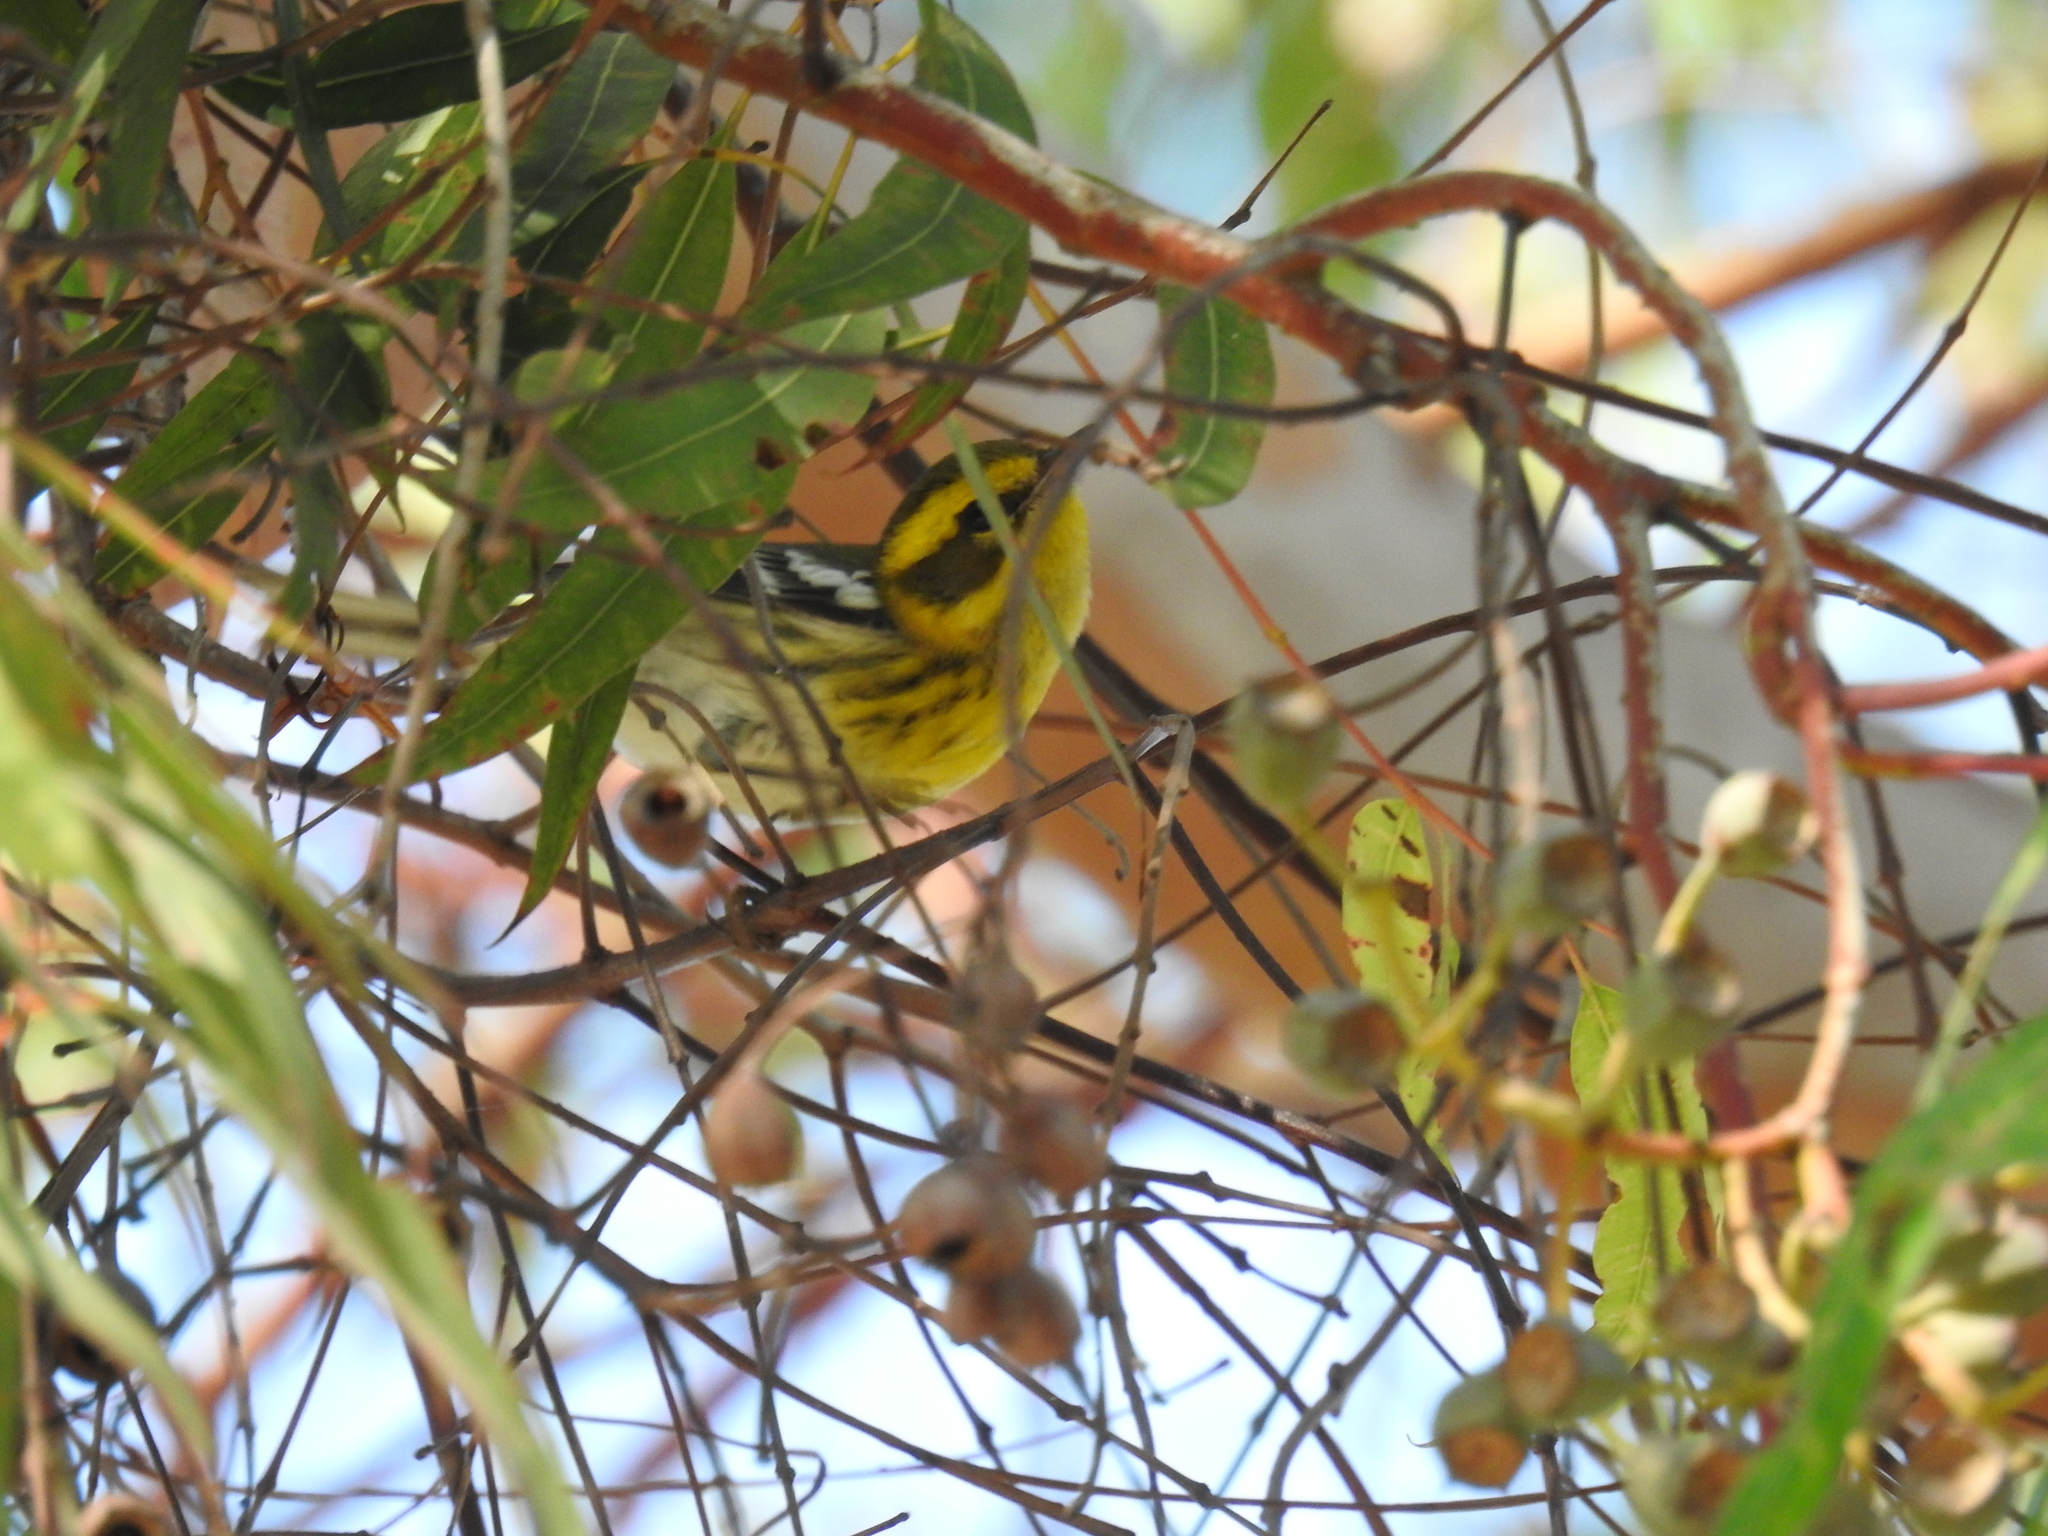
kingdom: Animalia
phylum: Chordata
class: Aves
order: Passeriformes
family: Parulidae
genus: Setophaga
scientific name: Setophaga townsendi
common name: Townsend's warbler
